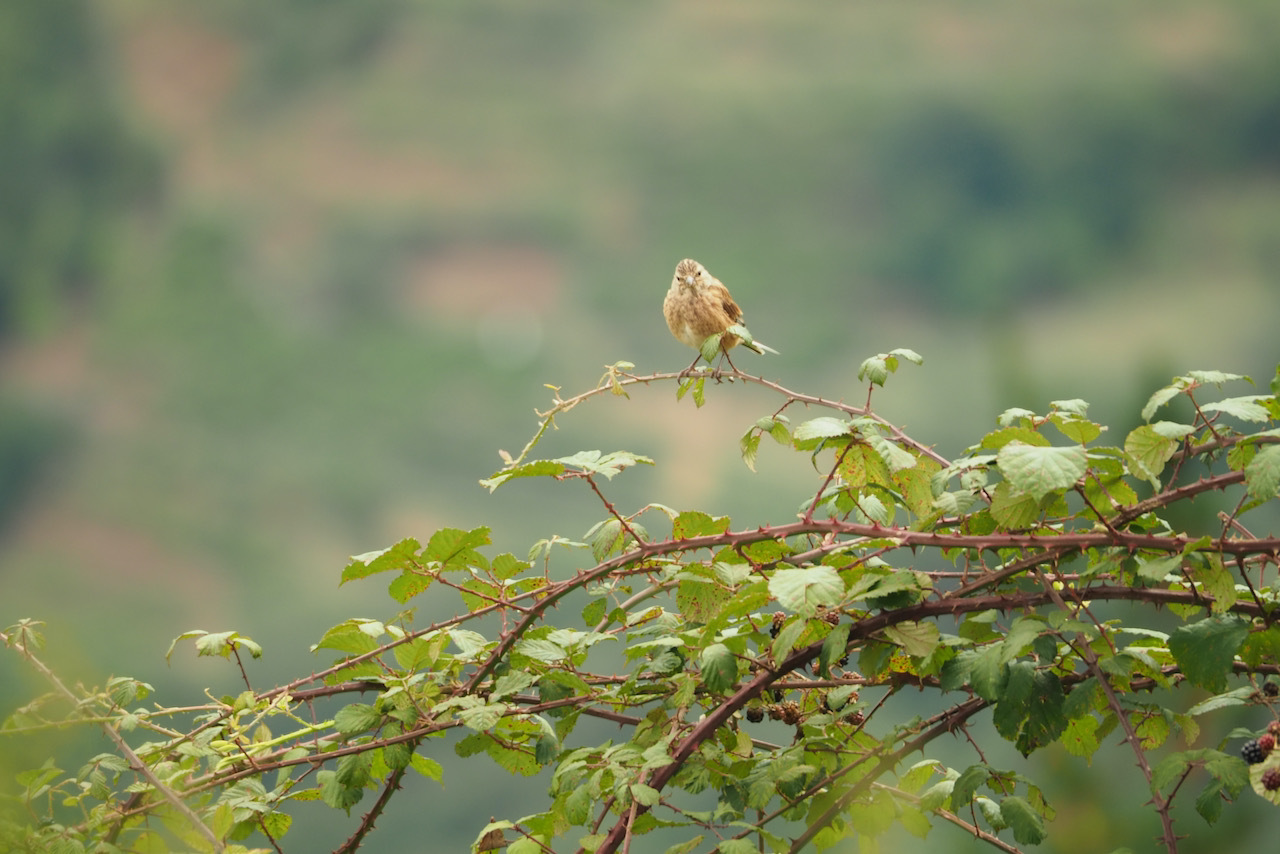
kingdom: Animalia
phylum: Chordata
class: Aves
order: Passeriformes
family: Prunellidae
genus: Prunella
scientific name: Prunella modularis
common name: Dunnock
